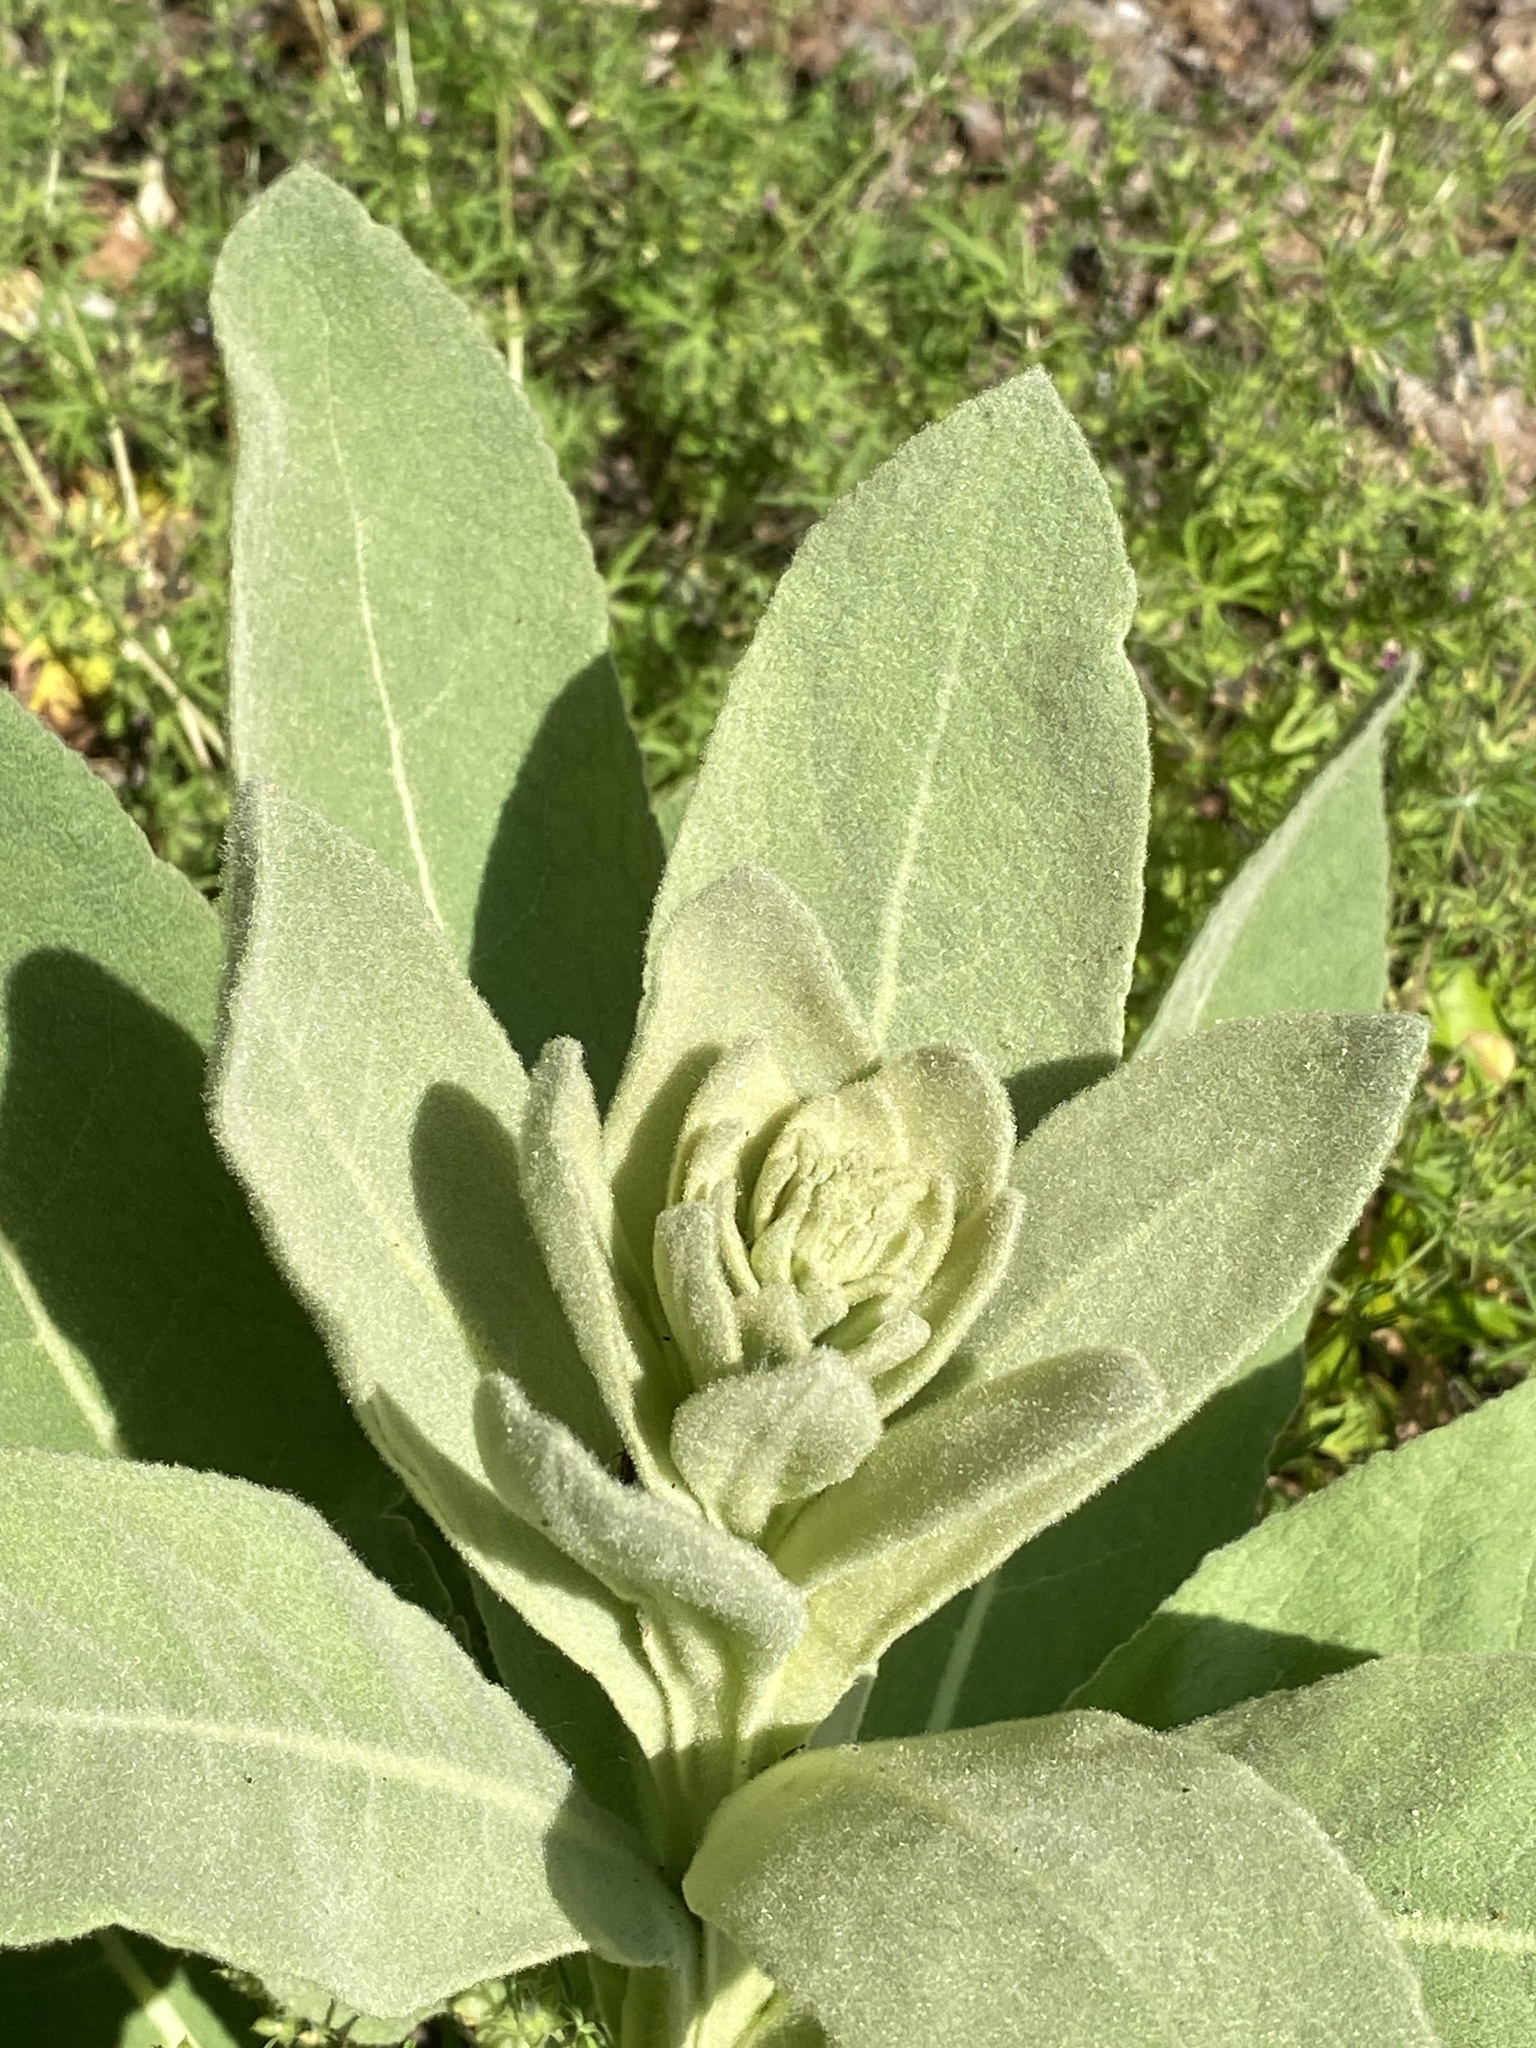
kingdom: Plantae
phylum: Tracheophyta
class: Magnoliopsida
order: Lamiales
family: Scrophulariaceae
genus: Verbascum
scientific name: Verbascum thapsus
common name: Common mullein
